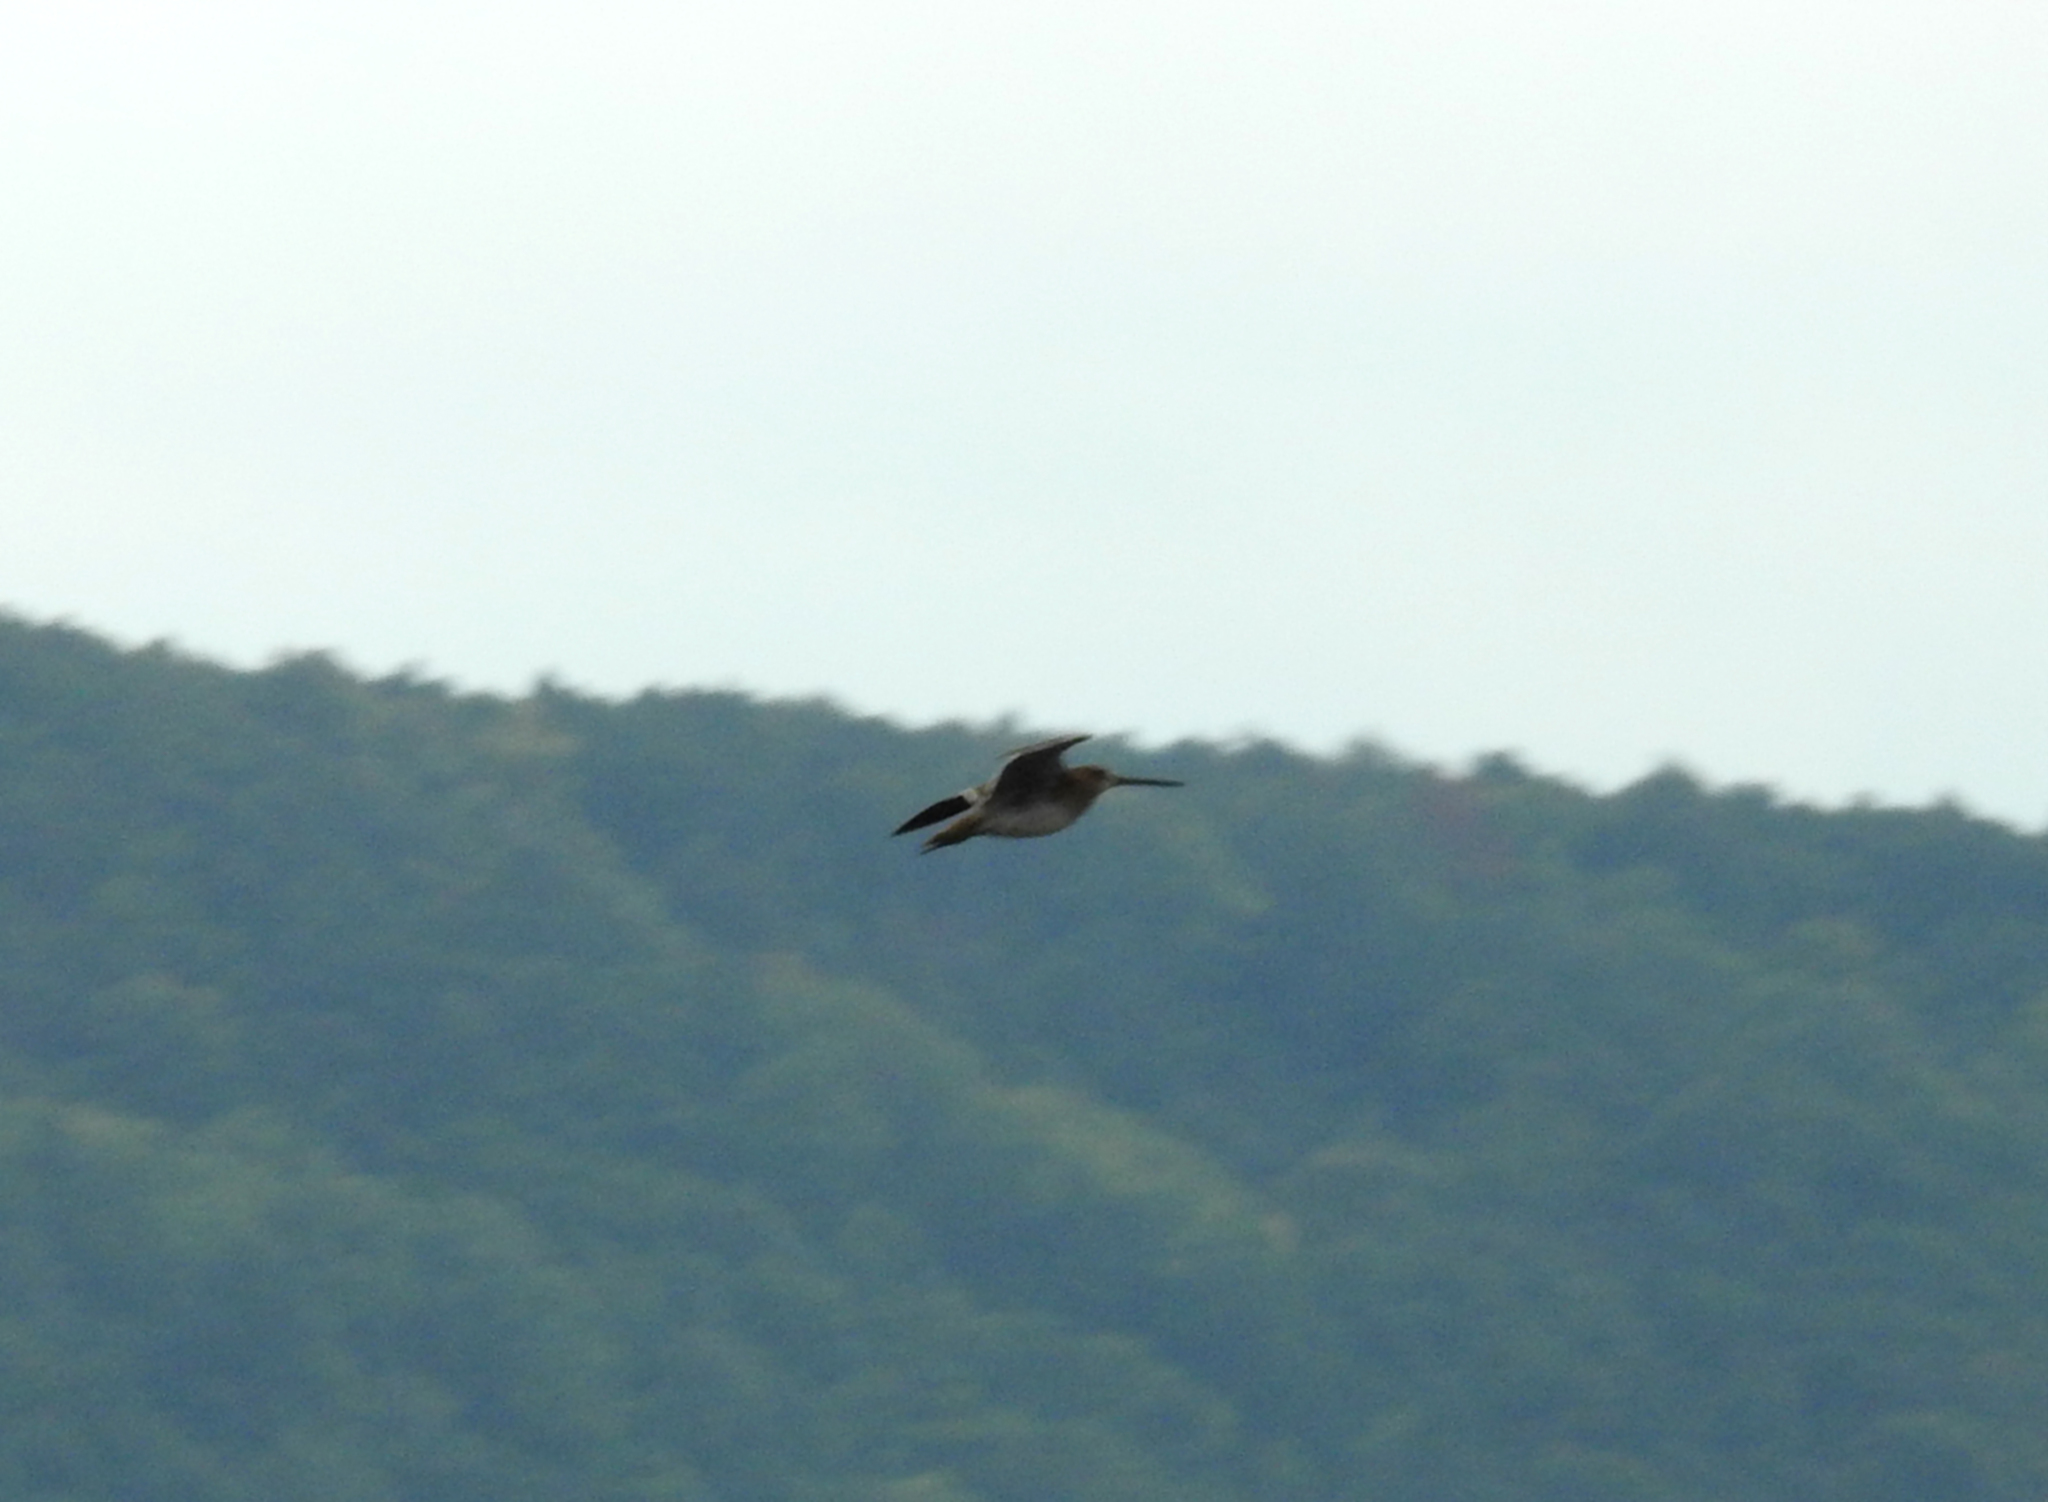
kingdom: Animalia
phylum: Chordata
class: Aves
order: Charadriiformes
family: Scolopacidae
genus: Gallinago
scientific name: Gallinago gallinago
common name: Common snipe
